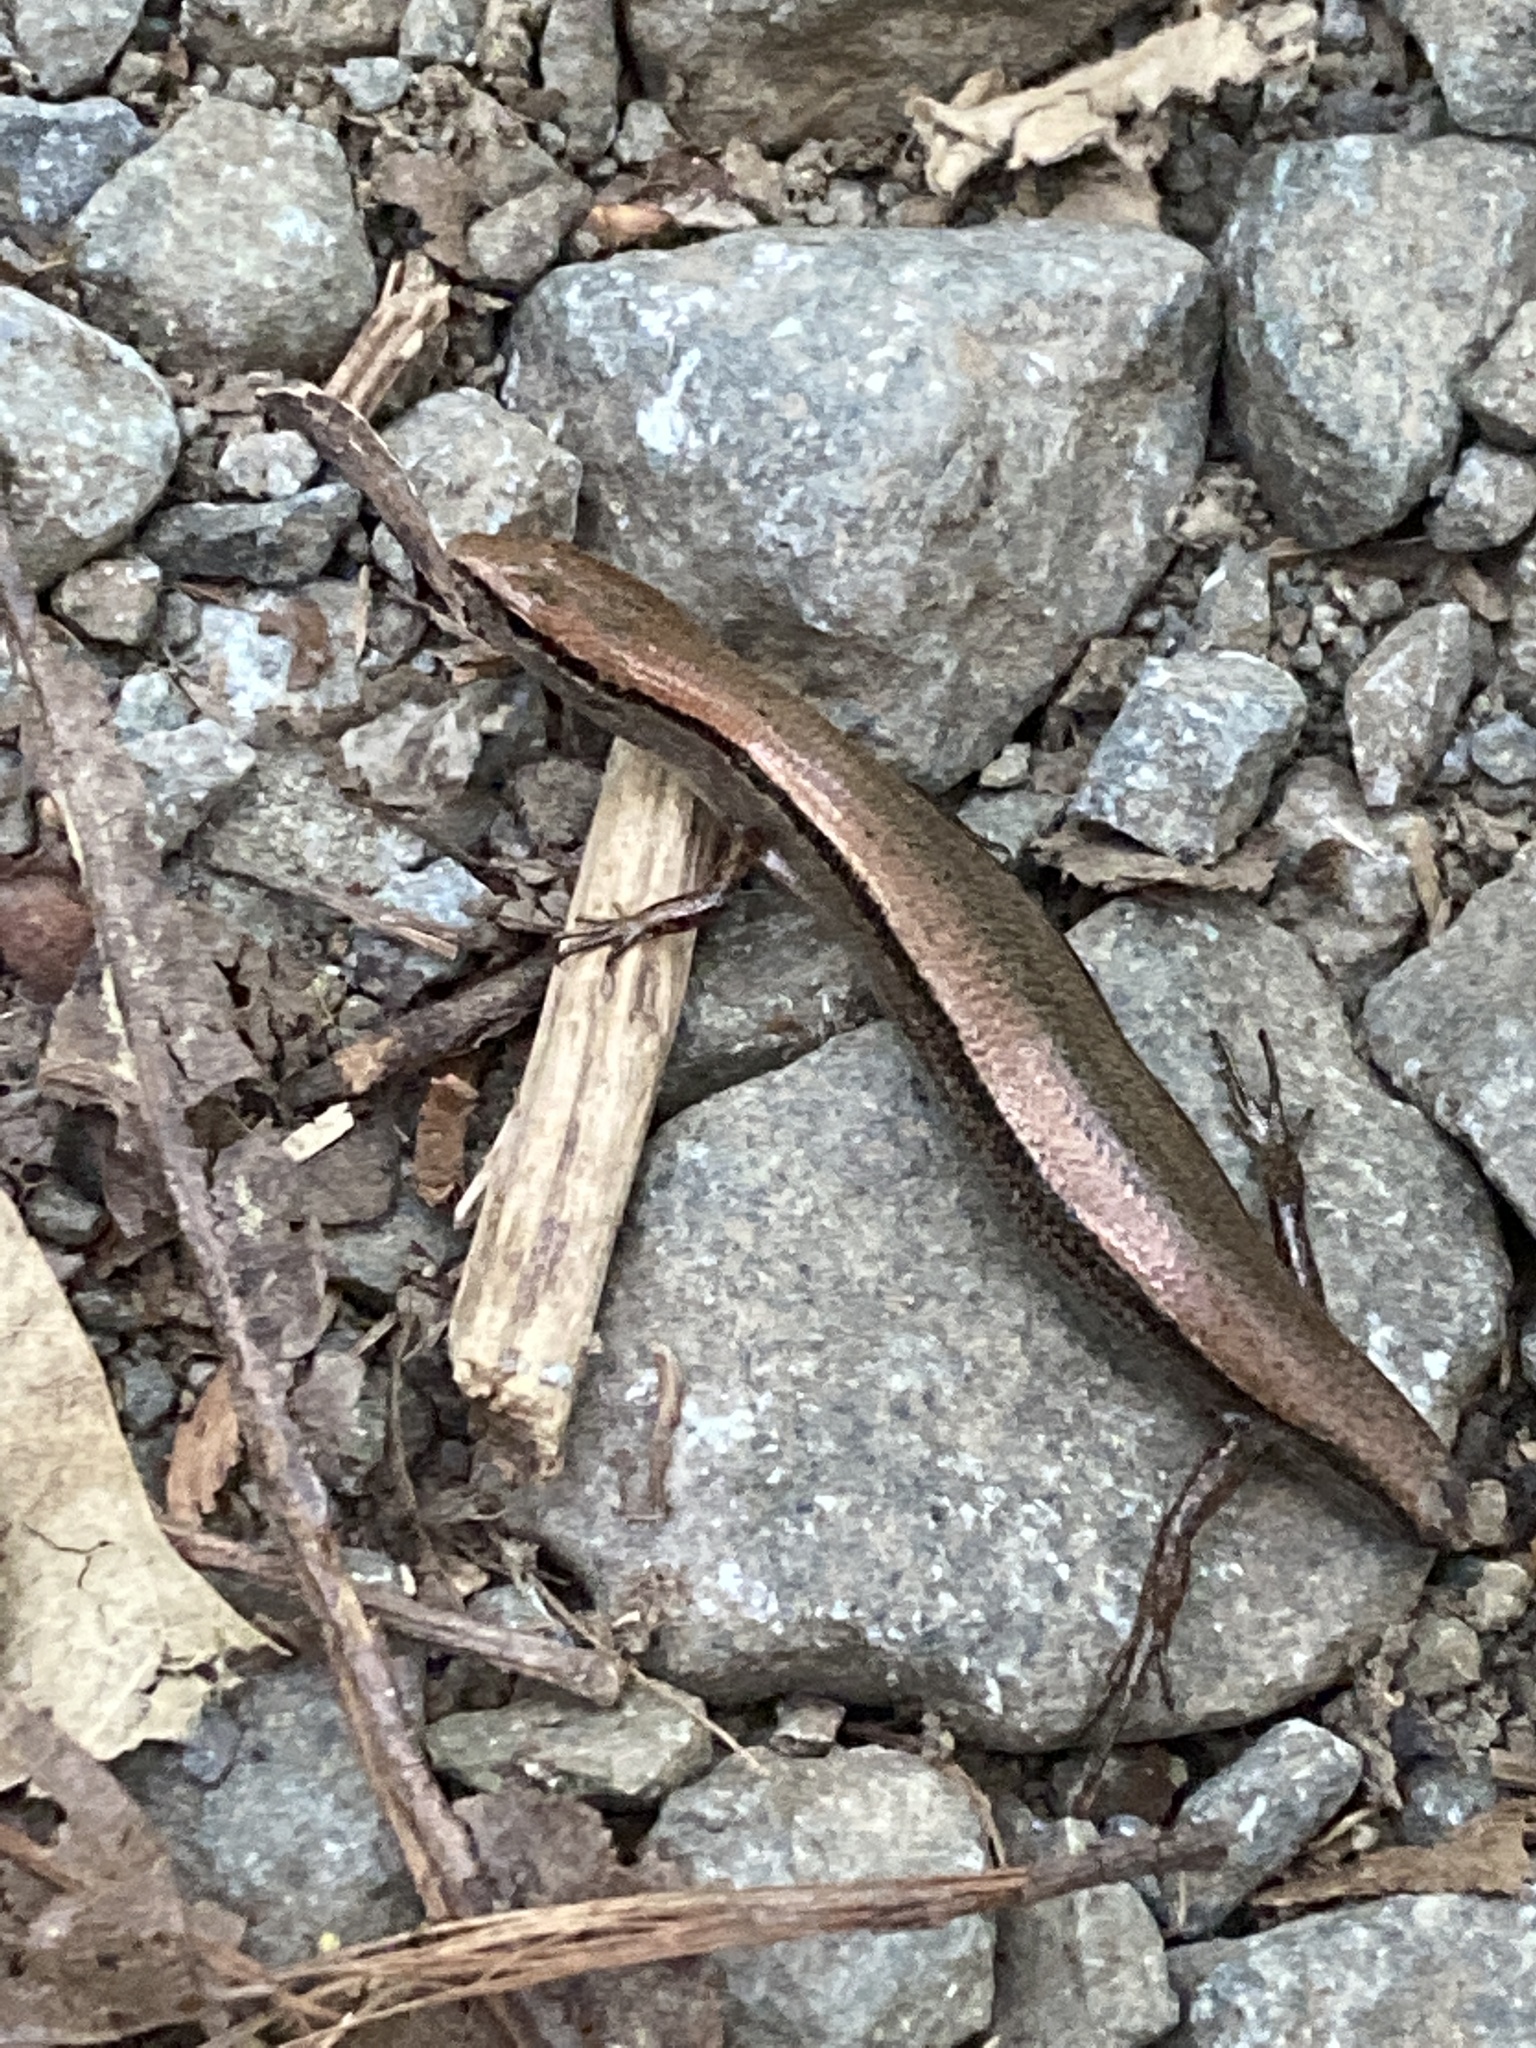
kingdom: Animalia
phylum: Chordata
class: Squamata
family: Scincidae
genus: Scincella
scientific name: Scincella lateralis
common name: Ground skink
